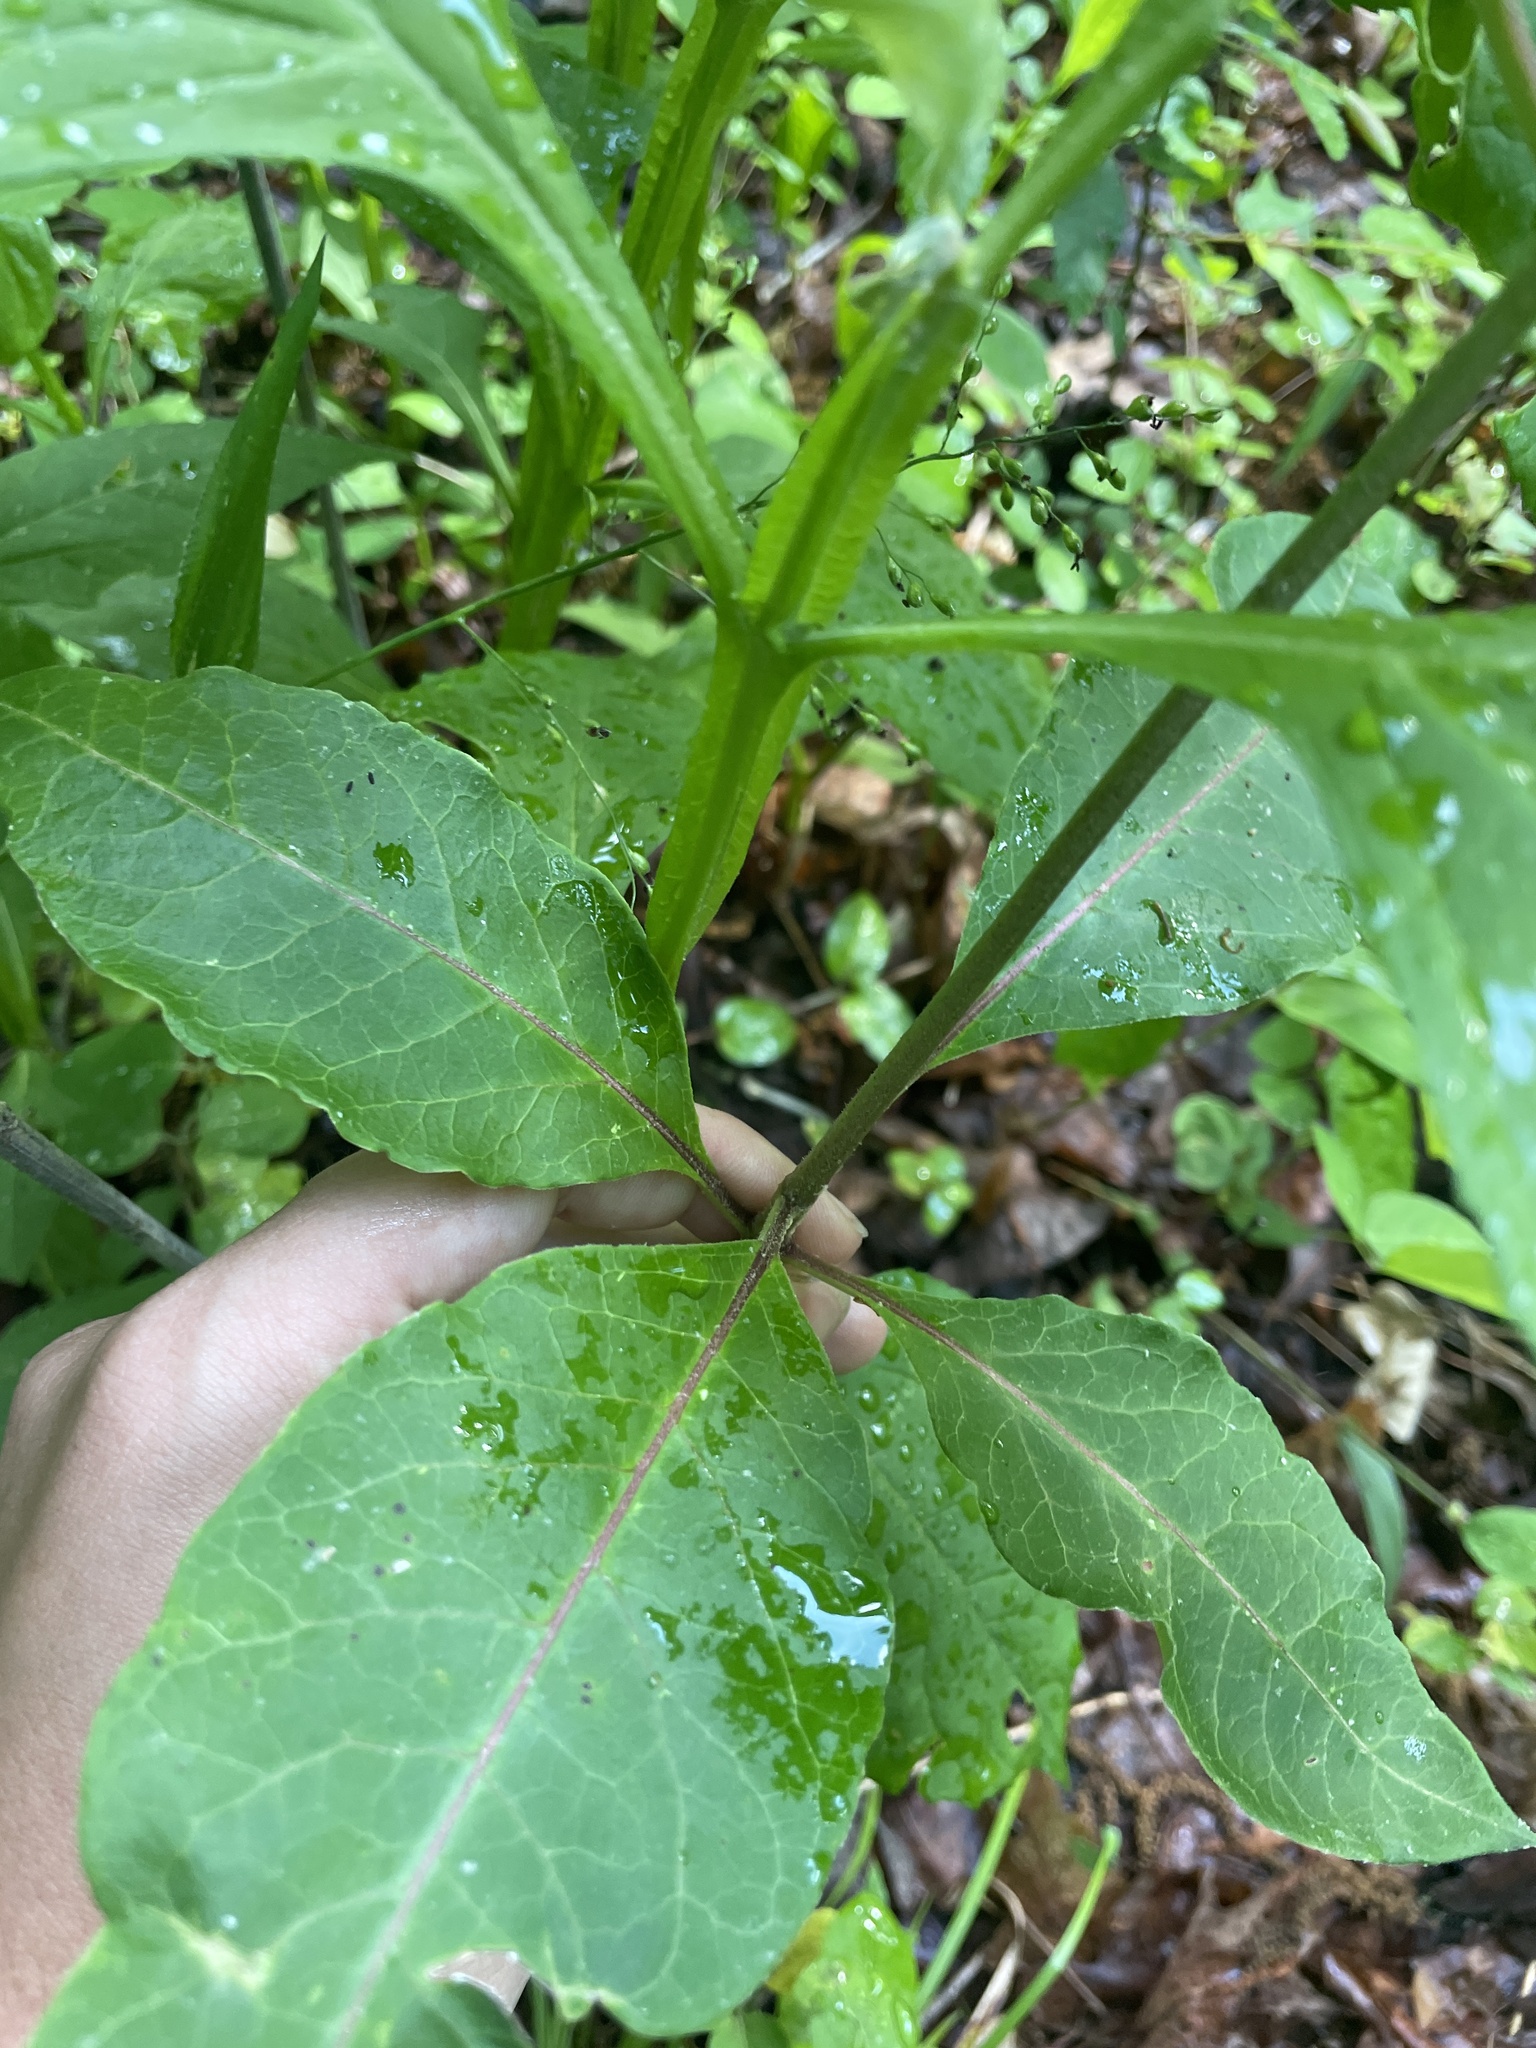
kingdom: Plantae
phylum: Tracheophyta
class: Magnoliopsida
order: Gentianales
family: Apocynaceae
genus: Asclepias
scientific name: Asclepias variegata
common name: Variegated milkweed
